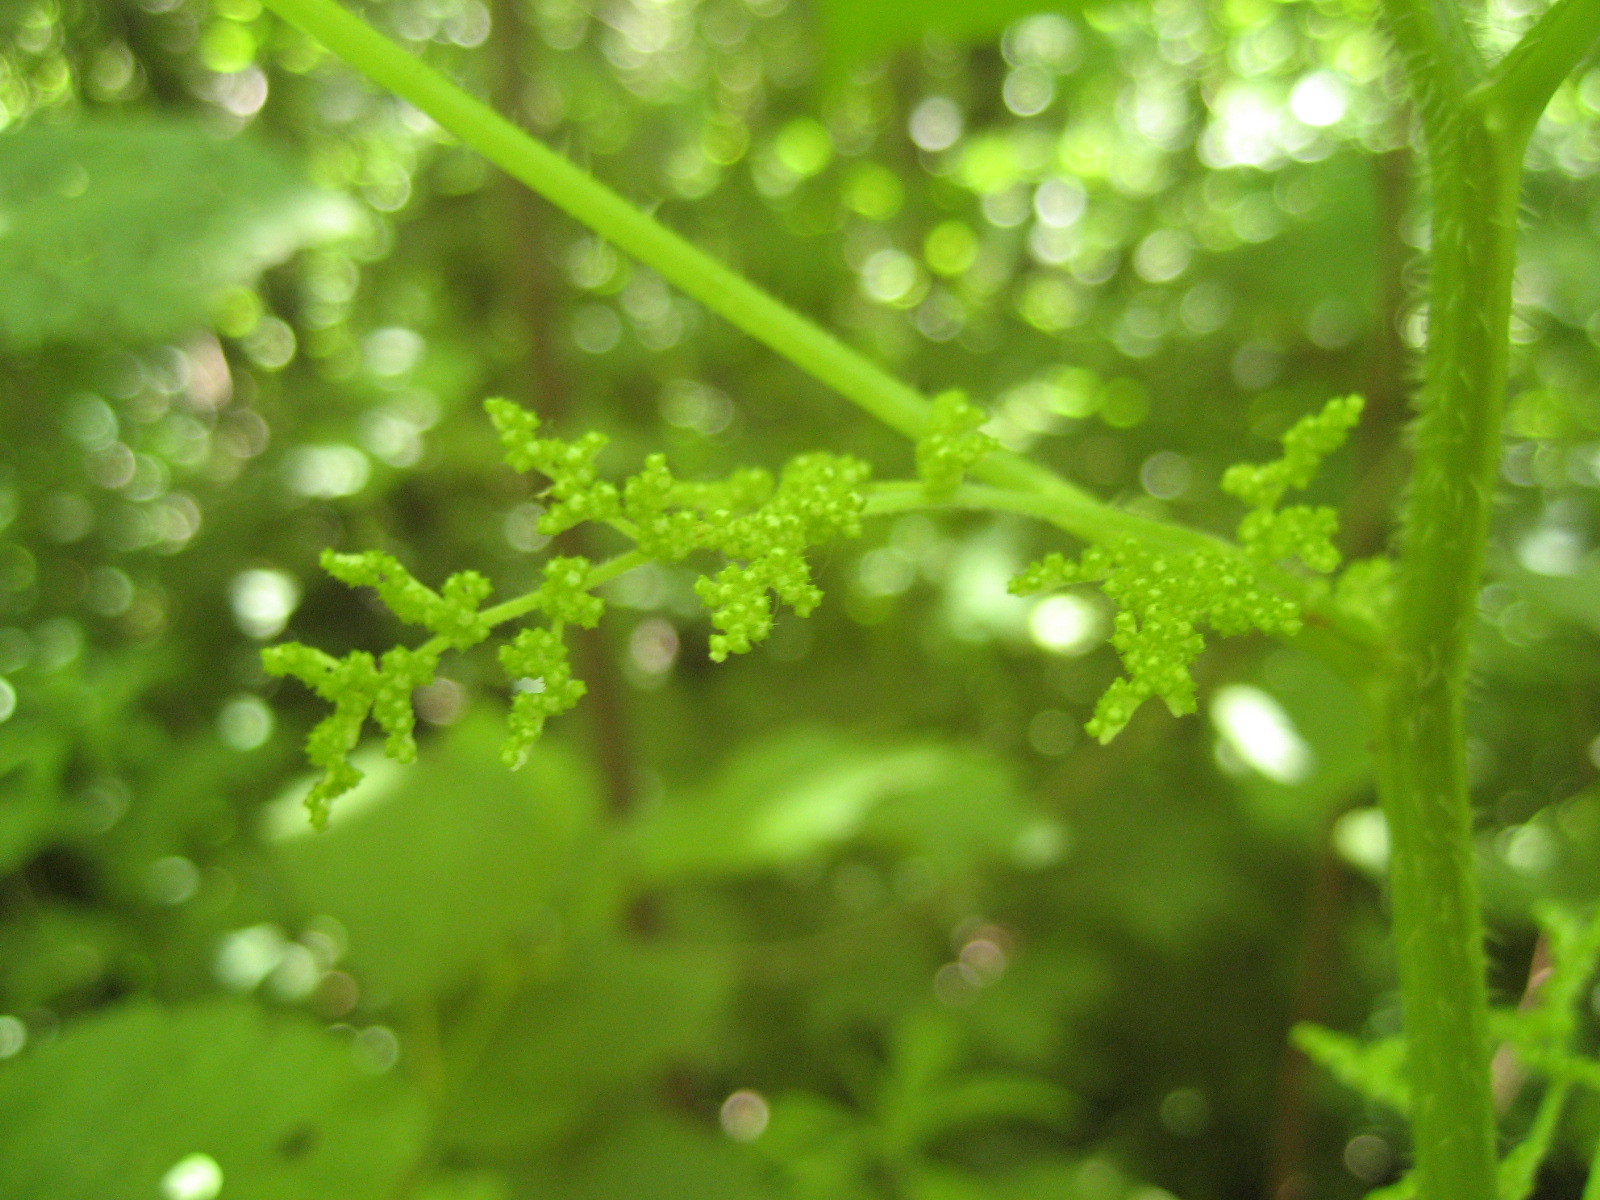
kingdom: Plantae
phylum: Tracheophyta
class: Magnoliopsida
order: Rosales
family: Urticaceae
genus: Laportea
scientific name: Laportea canadensis
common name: Canada nettle
